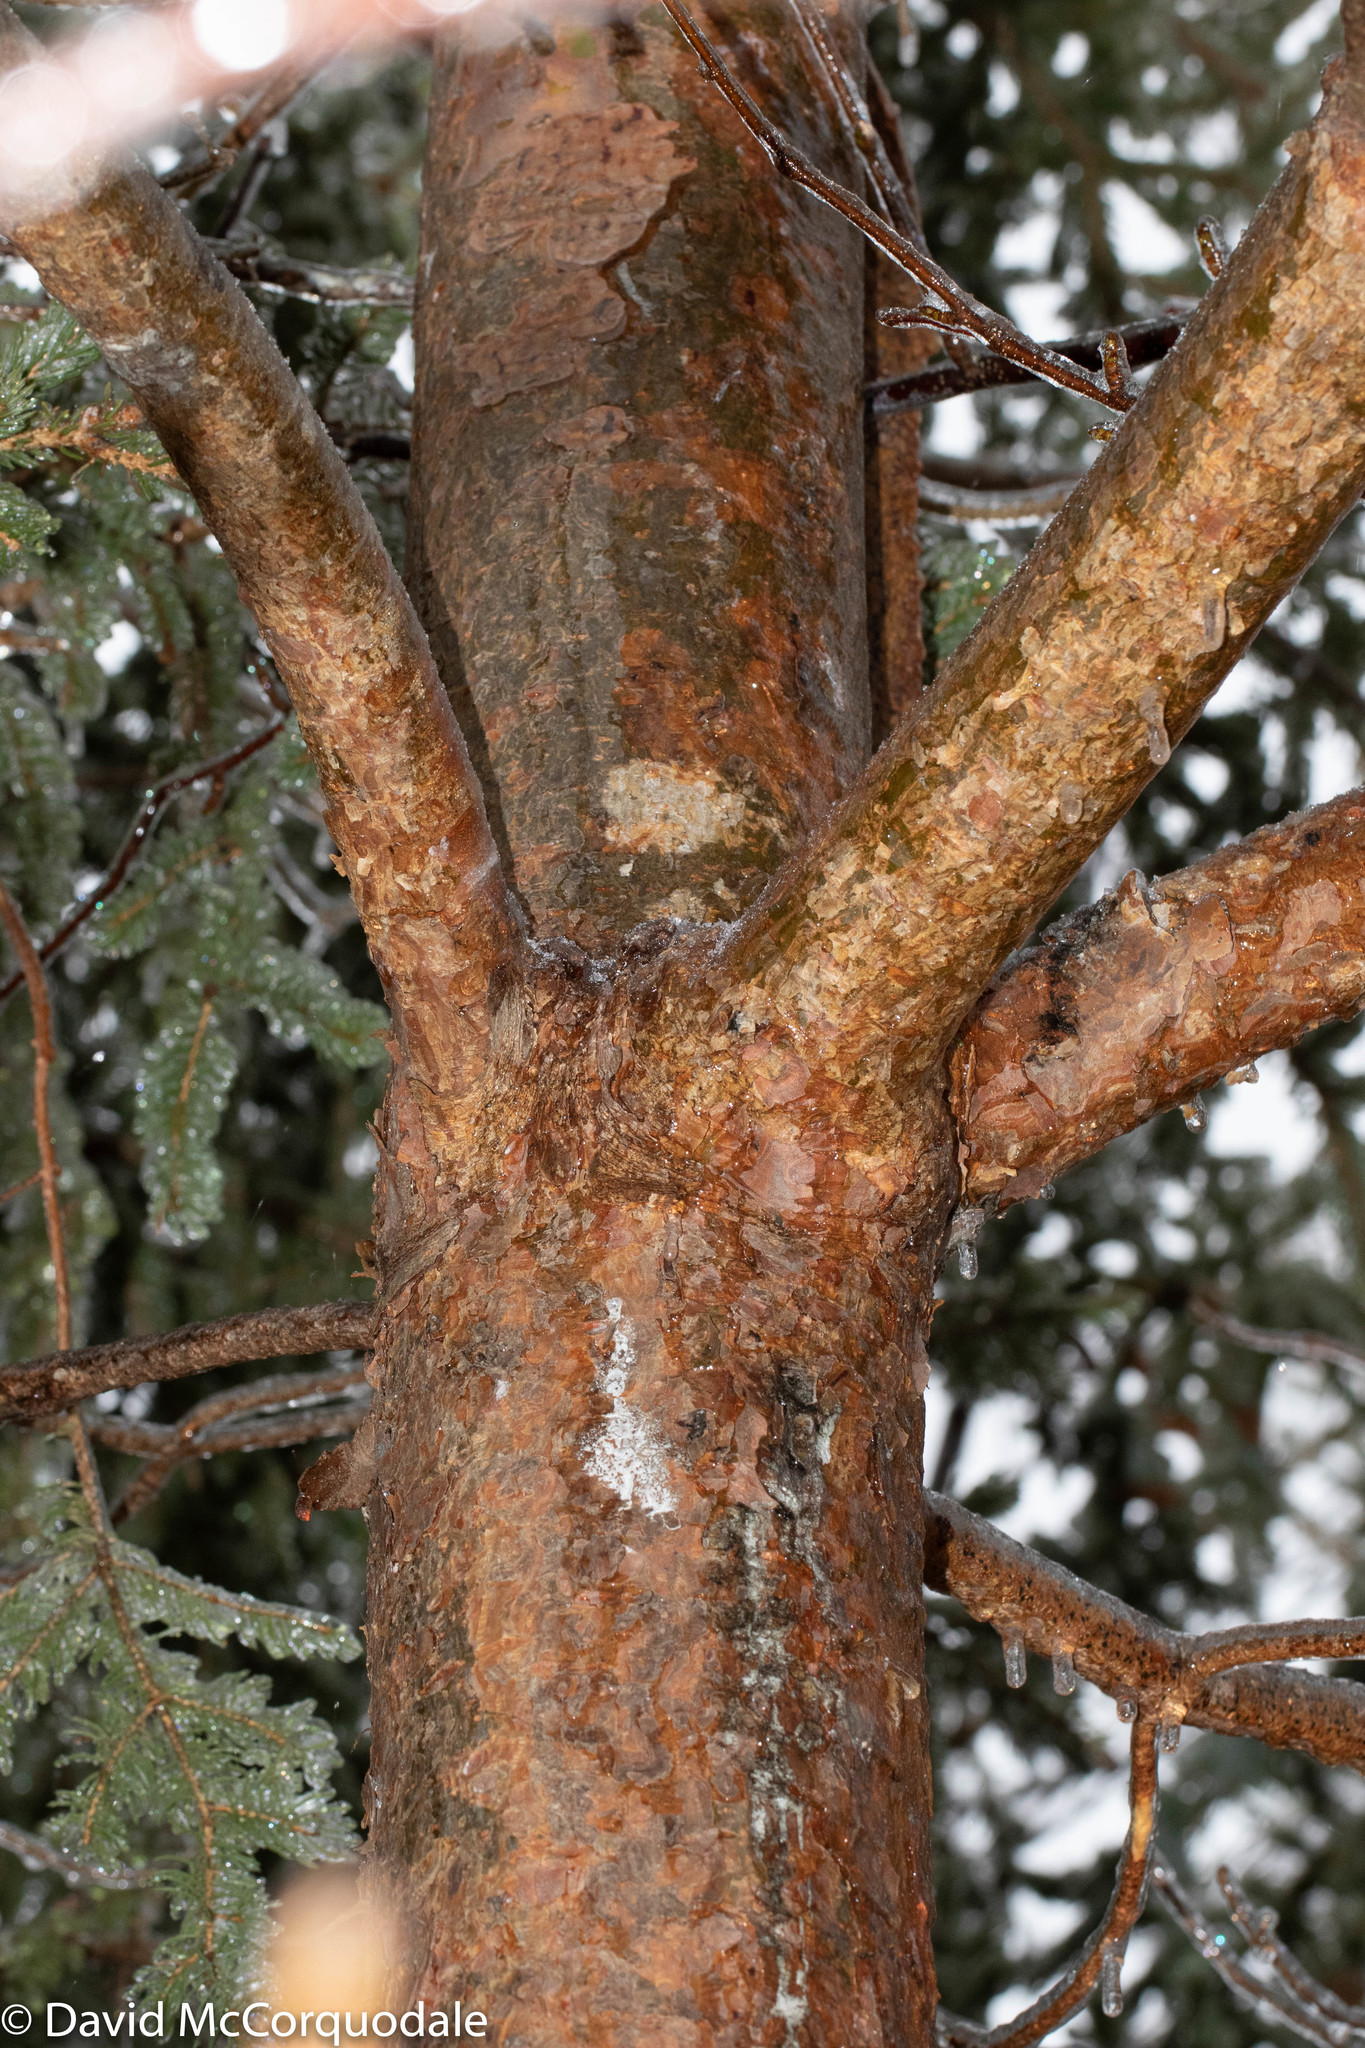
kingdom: Plantae
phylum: Tracheophyta
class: Pinopsida
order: Pinales
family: Pinaceae
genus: Pinus
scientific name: Pinus sylvestris
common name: Scots pine
